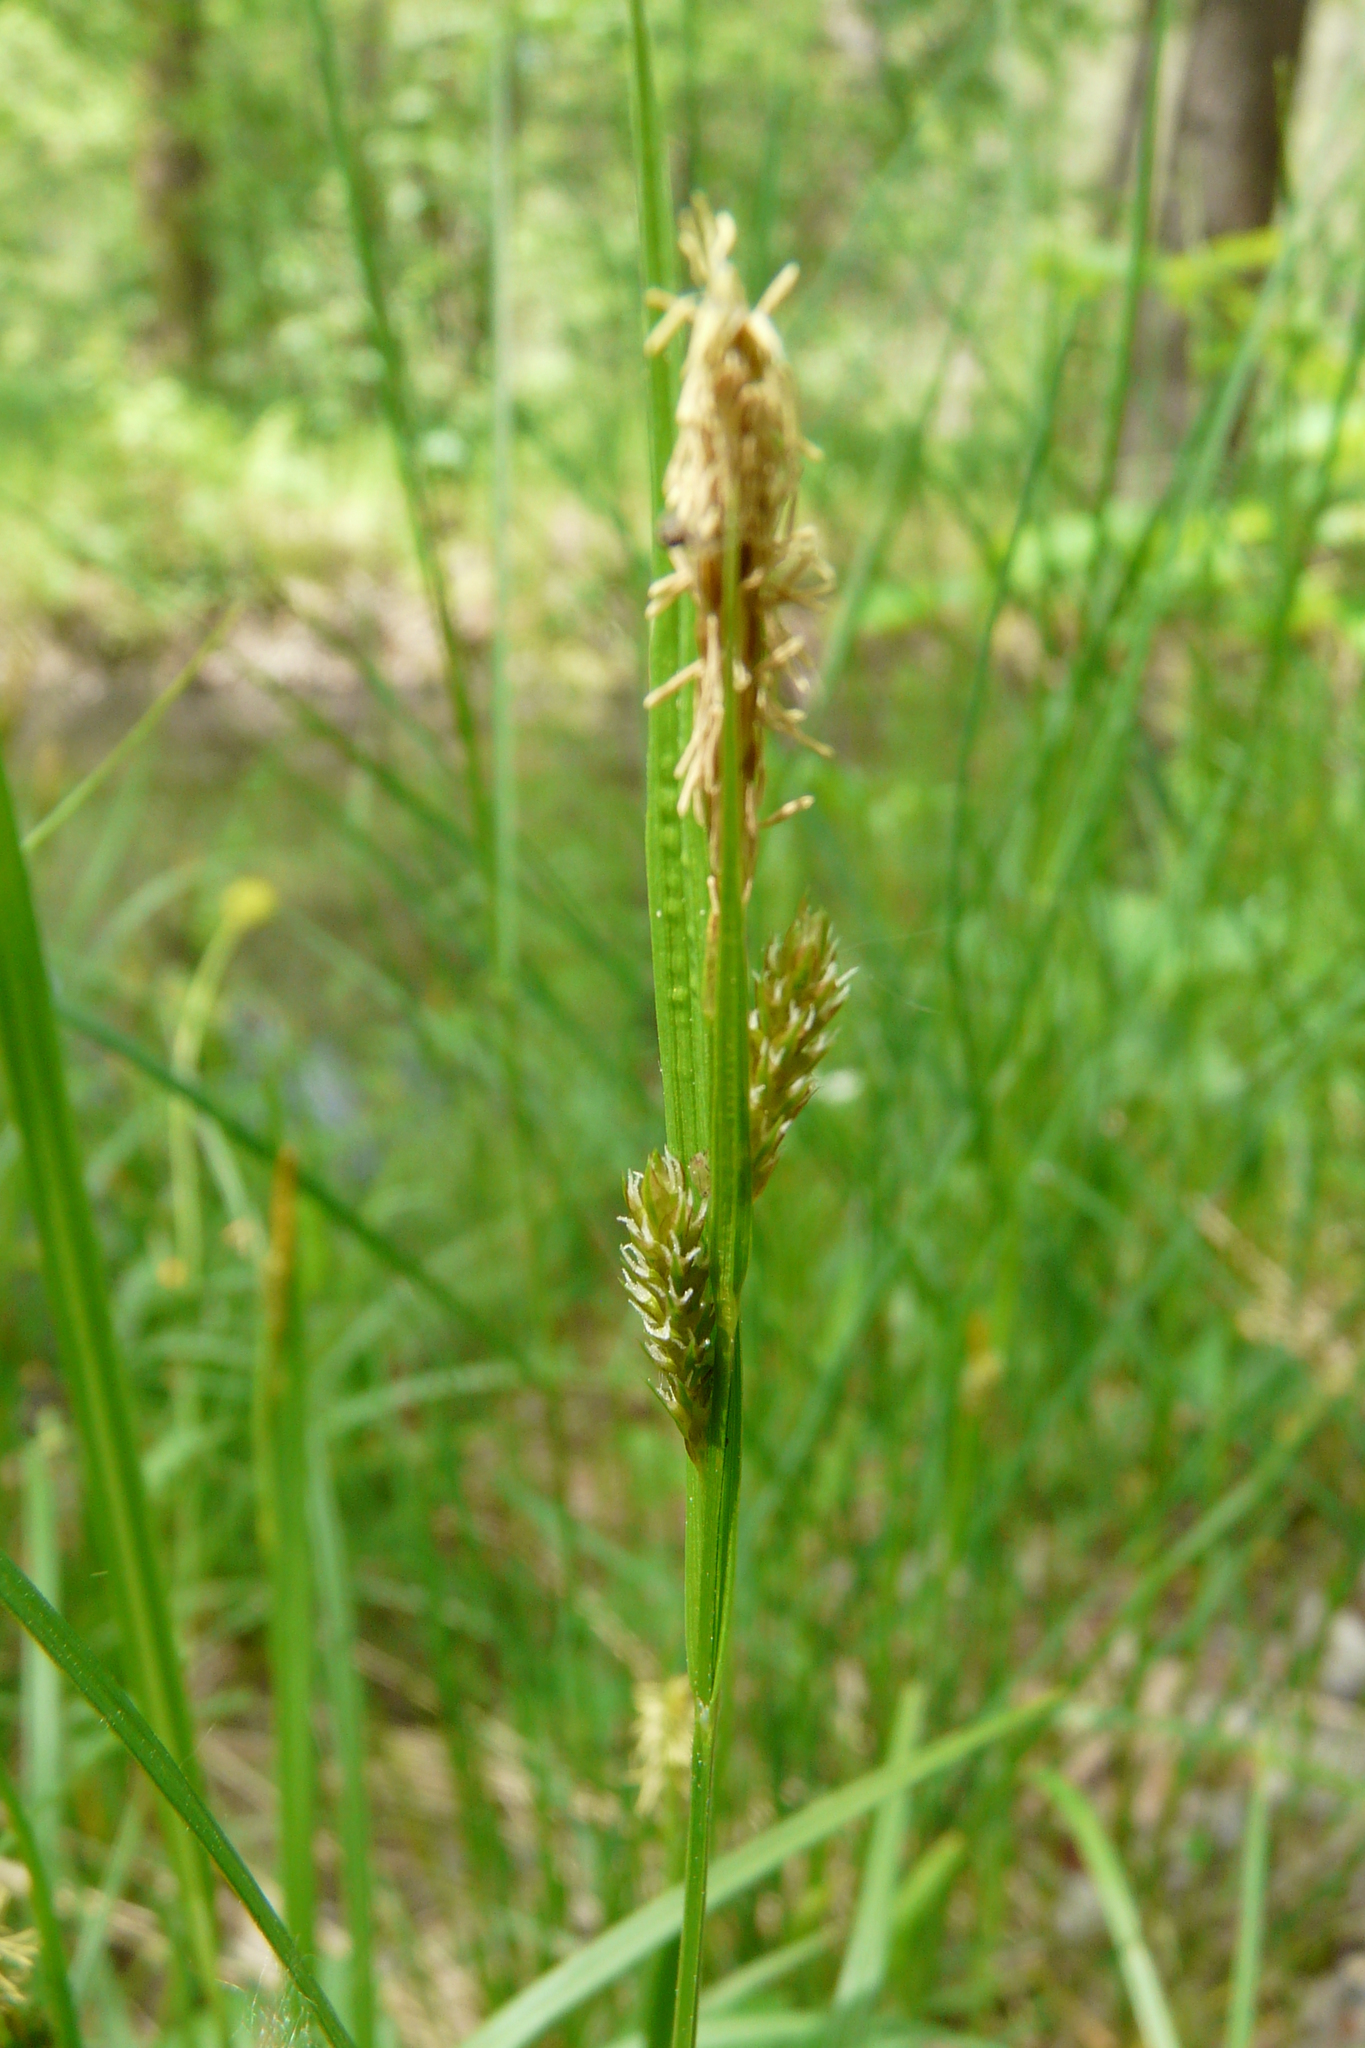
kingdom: Plantae
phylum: Tracheophyta
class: Liliopsida
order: Poales
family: Cyperaceae
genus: Carex
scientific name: Carex pallescens
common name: Pale sedge
